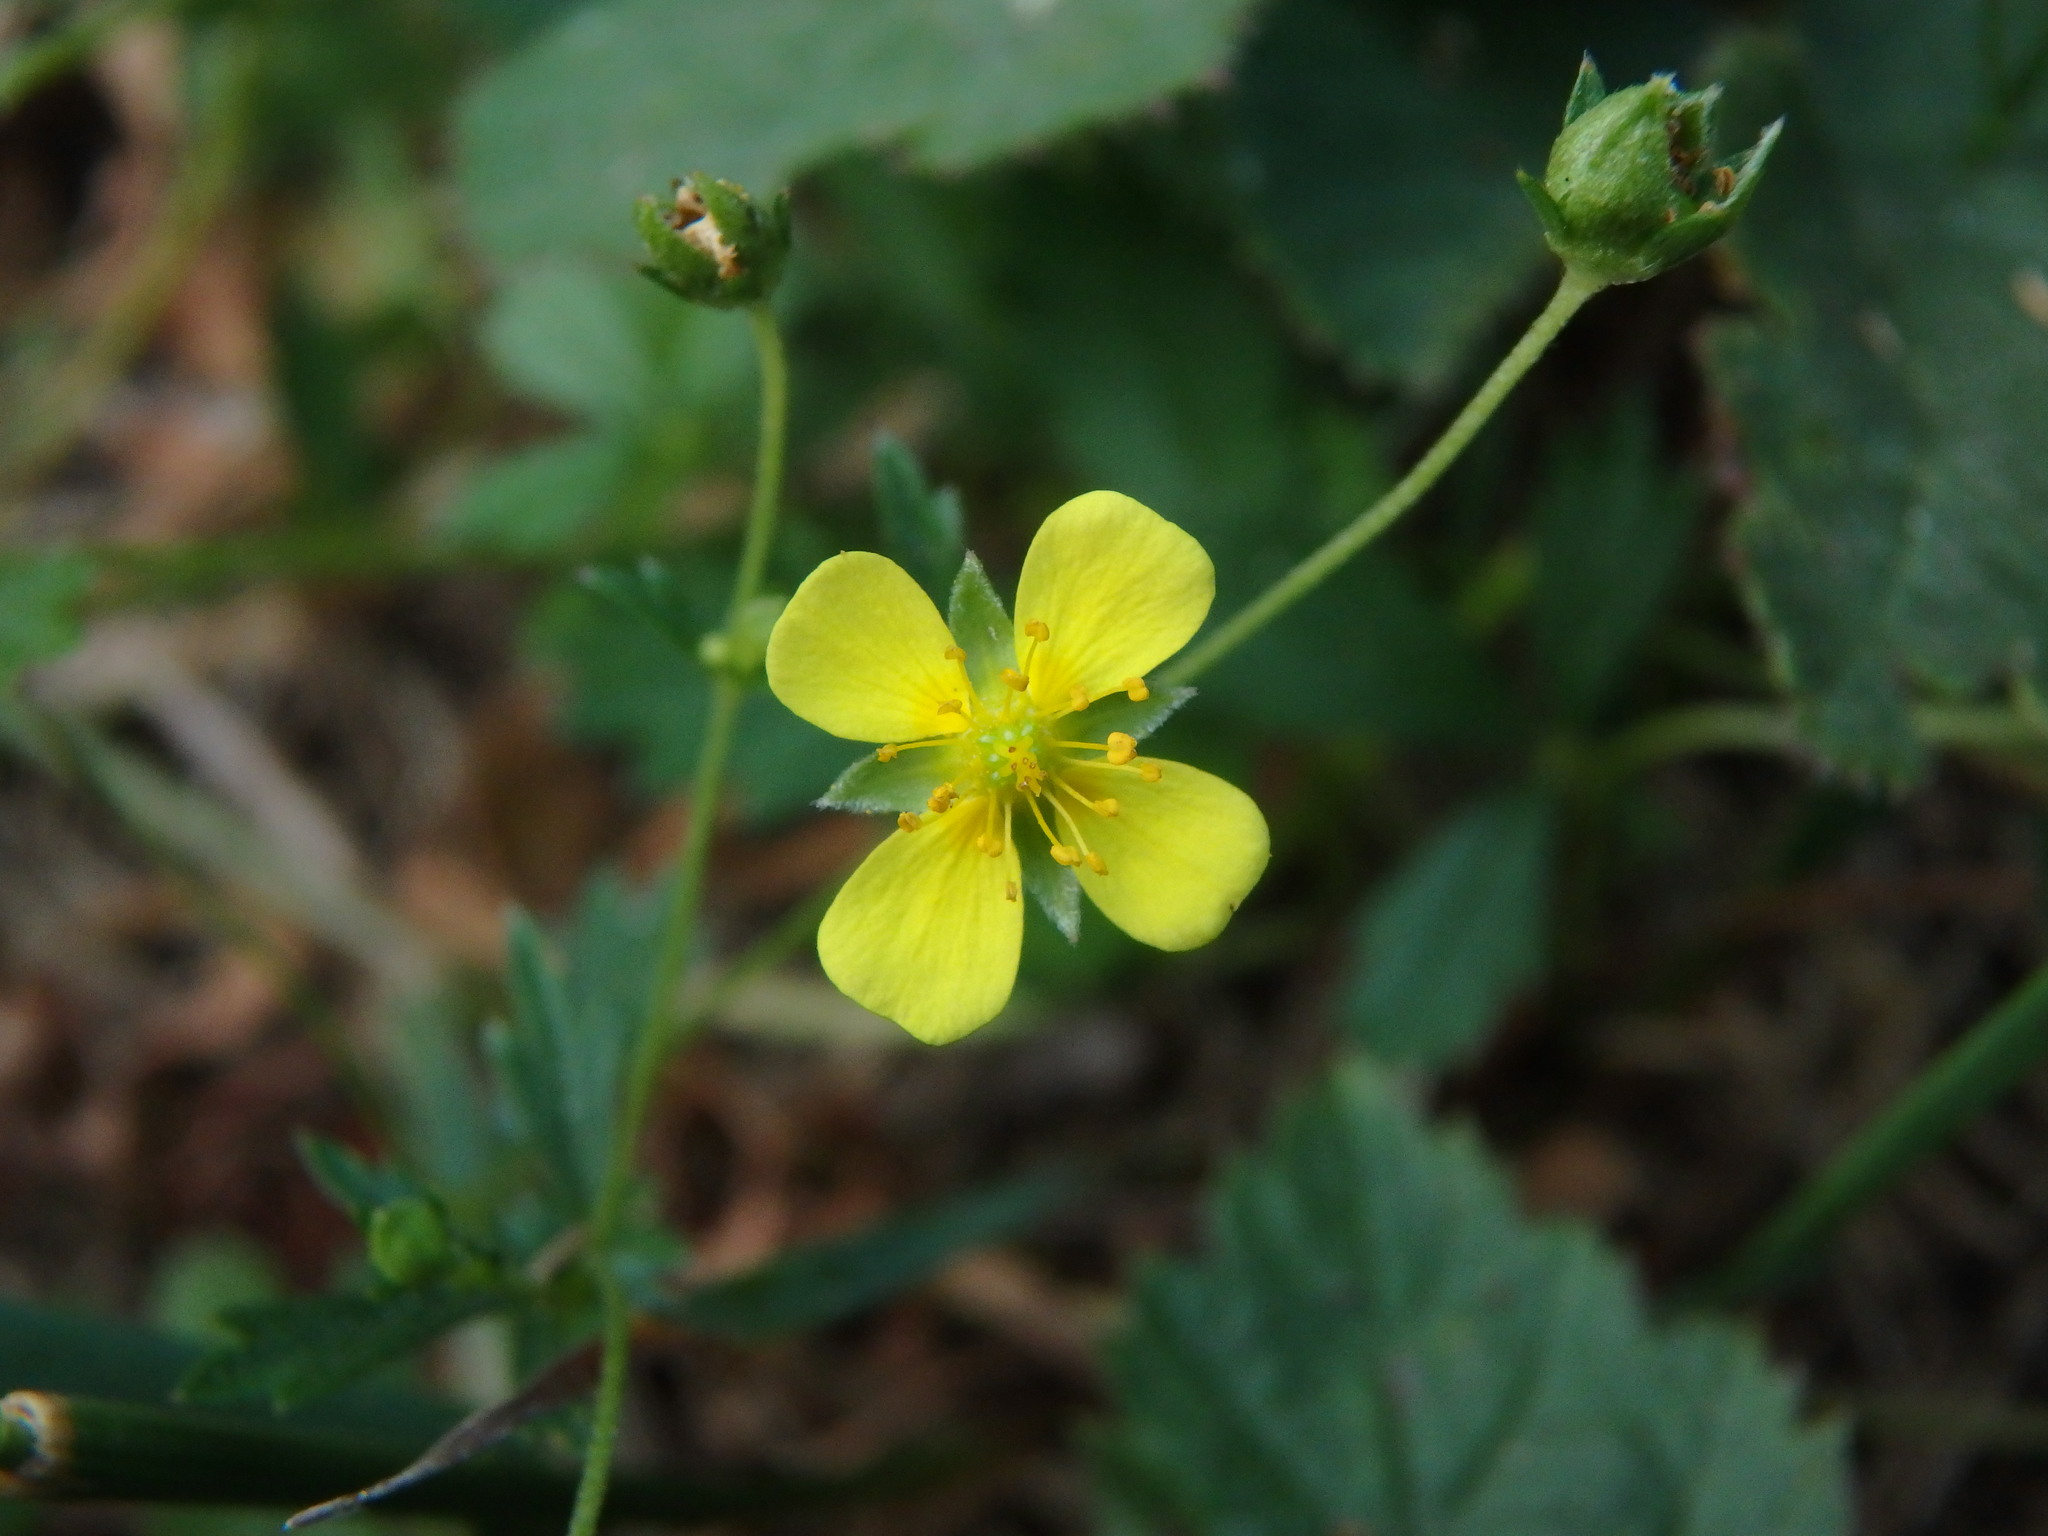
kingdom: Plantae
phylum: Tracheophyta
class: Magnoliopsida
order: Rosales
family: Rosaceae
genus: Potentilla
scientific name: Potentilla erecta
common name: Tormentil
